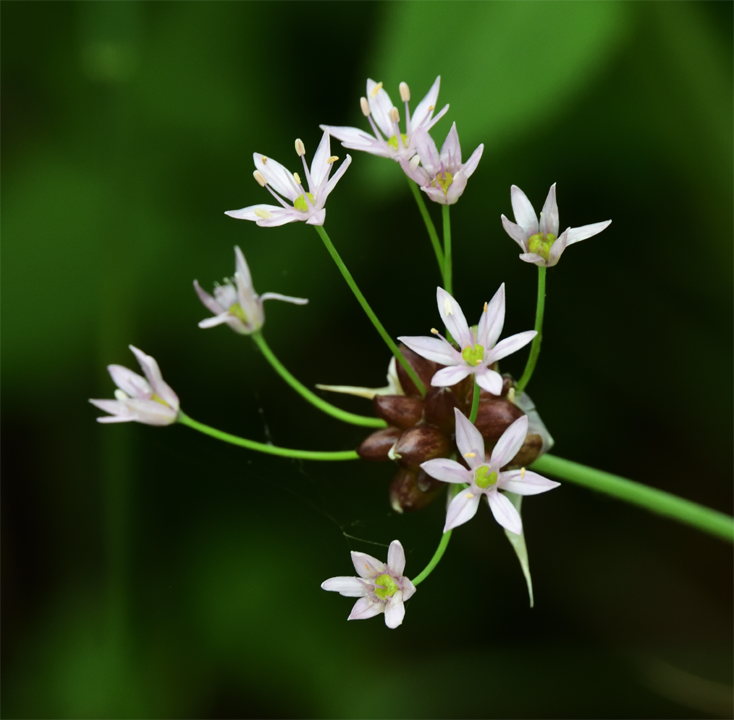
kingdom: Plantae
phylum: Tracheophyta
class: Liliopsida
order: Asparagales
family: Amaryllidaceae
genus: Allium
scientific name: Allium canadense
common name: Meadow garlic
